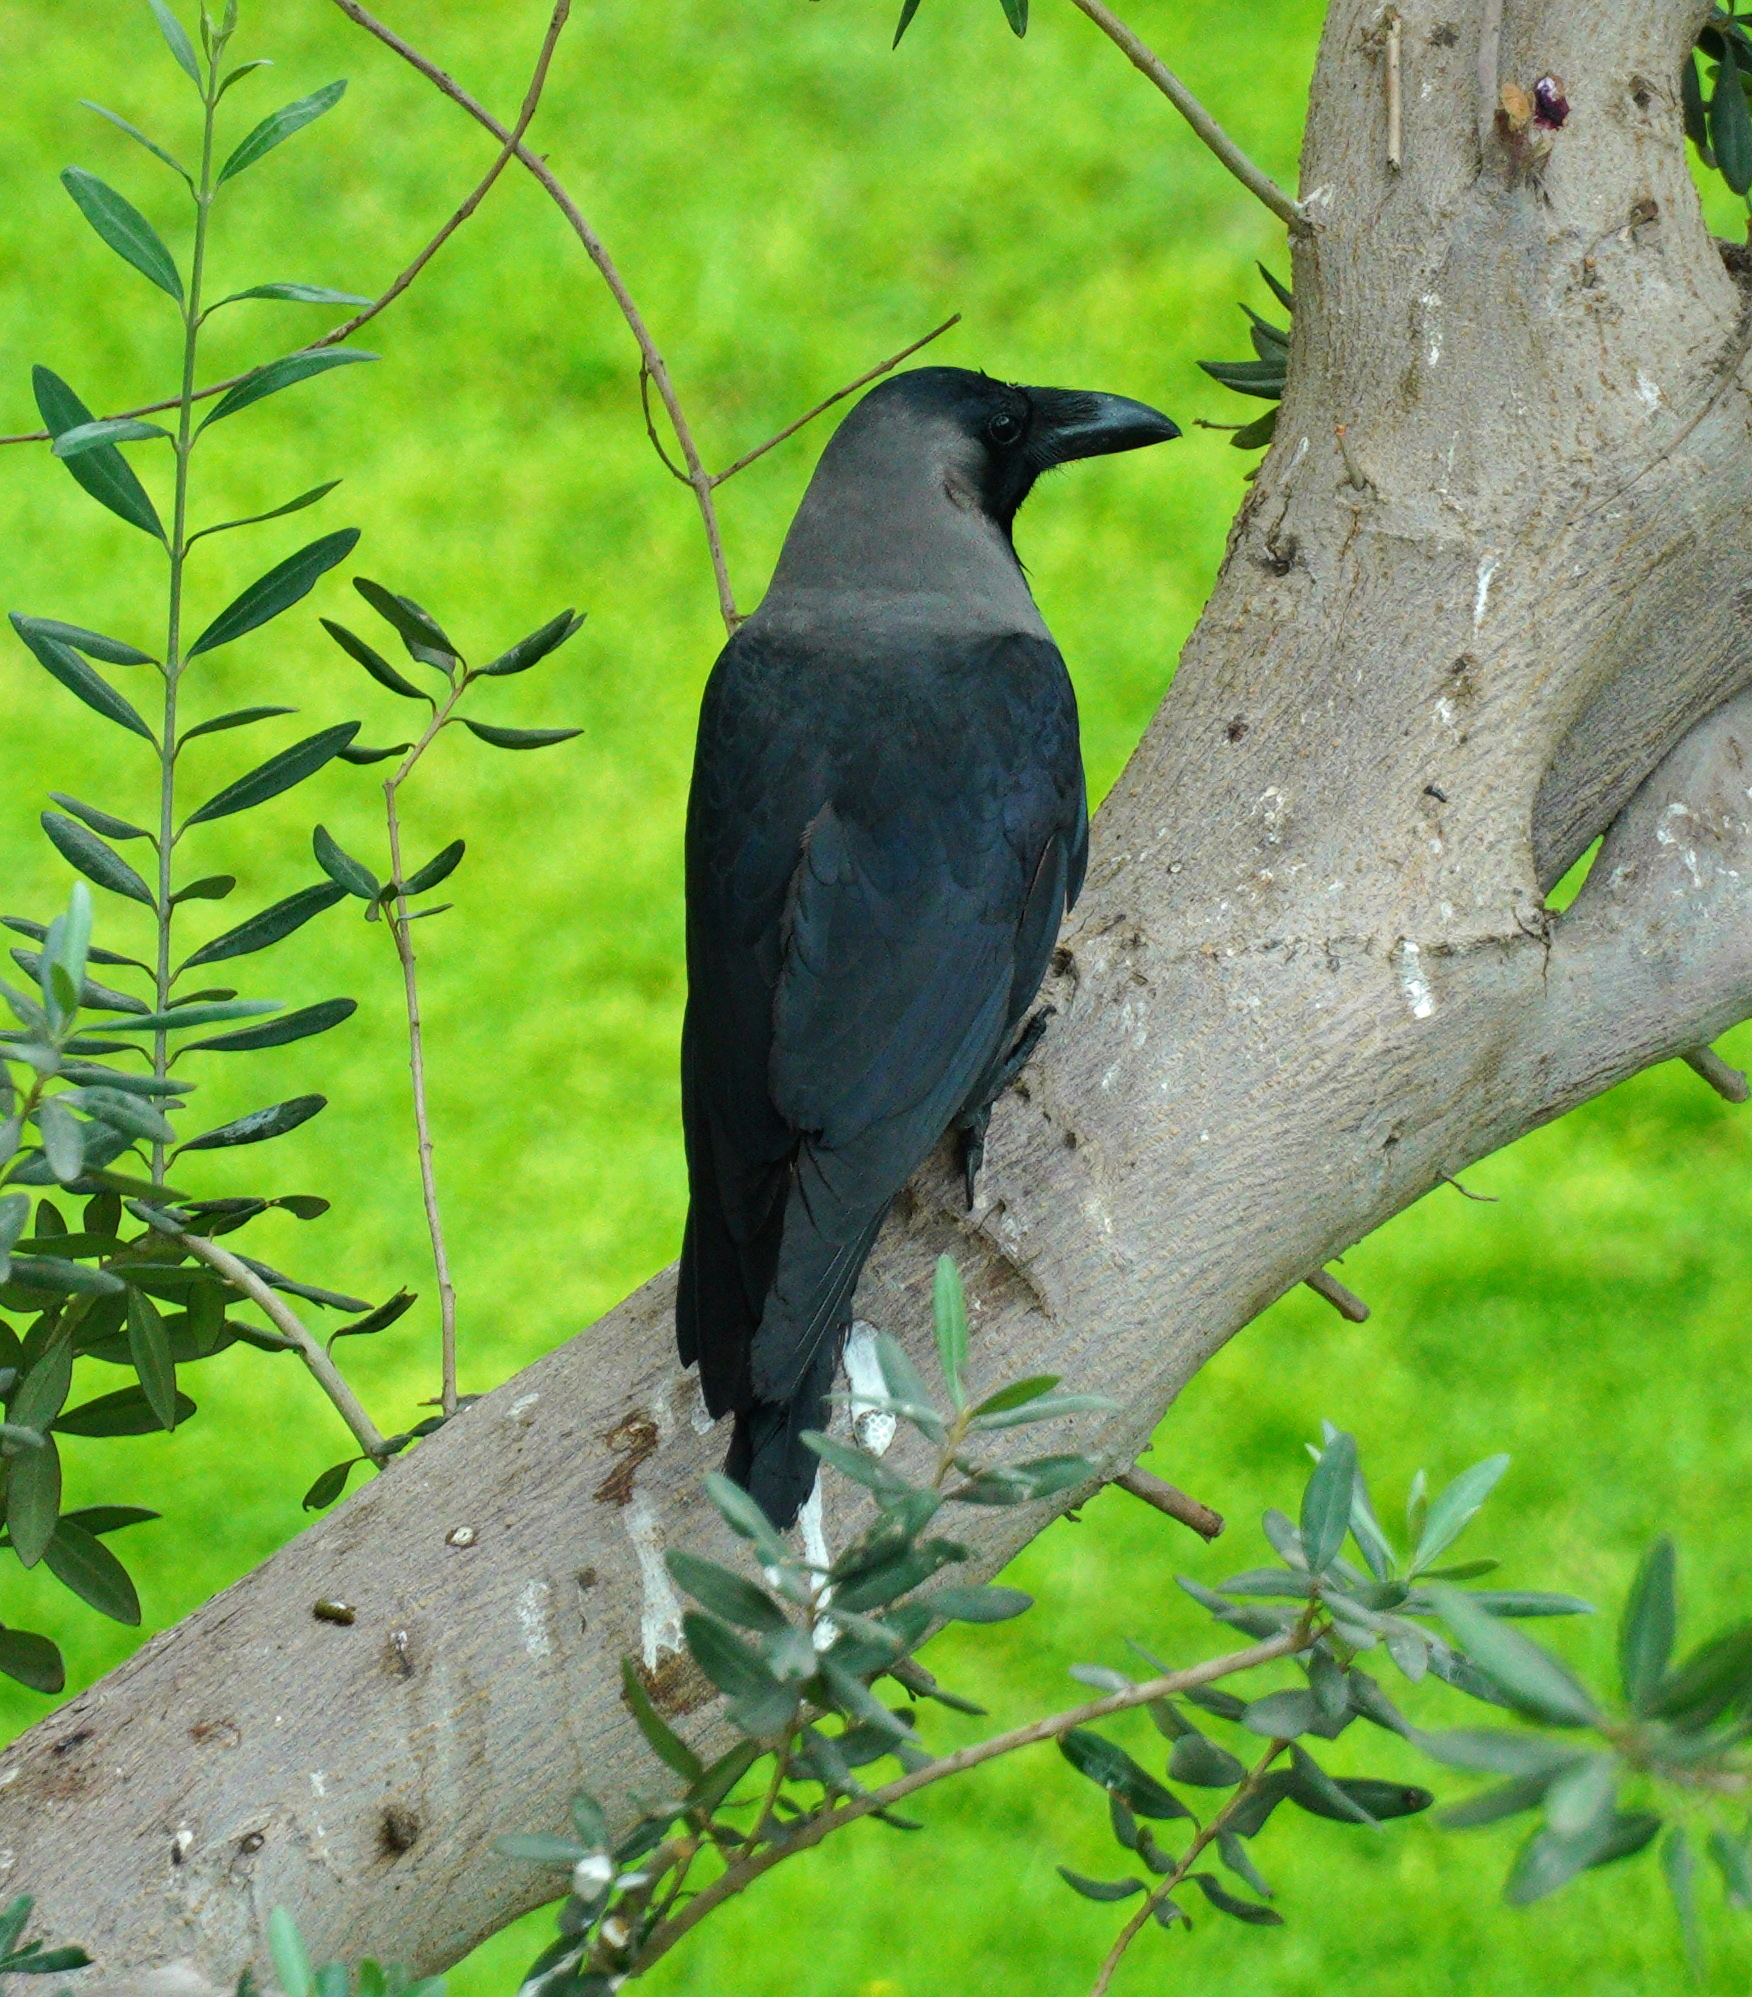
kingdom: Animalia
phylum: Chordata
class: Aves
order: Passeriformes
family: Corvidae
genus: Corvus
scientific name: Corvus splendens
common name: House crow
